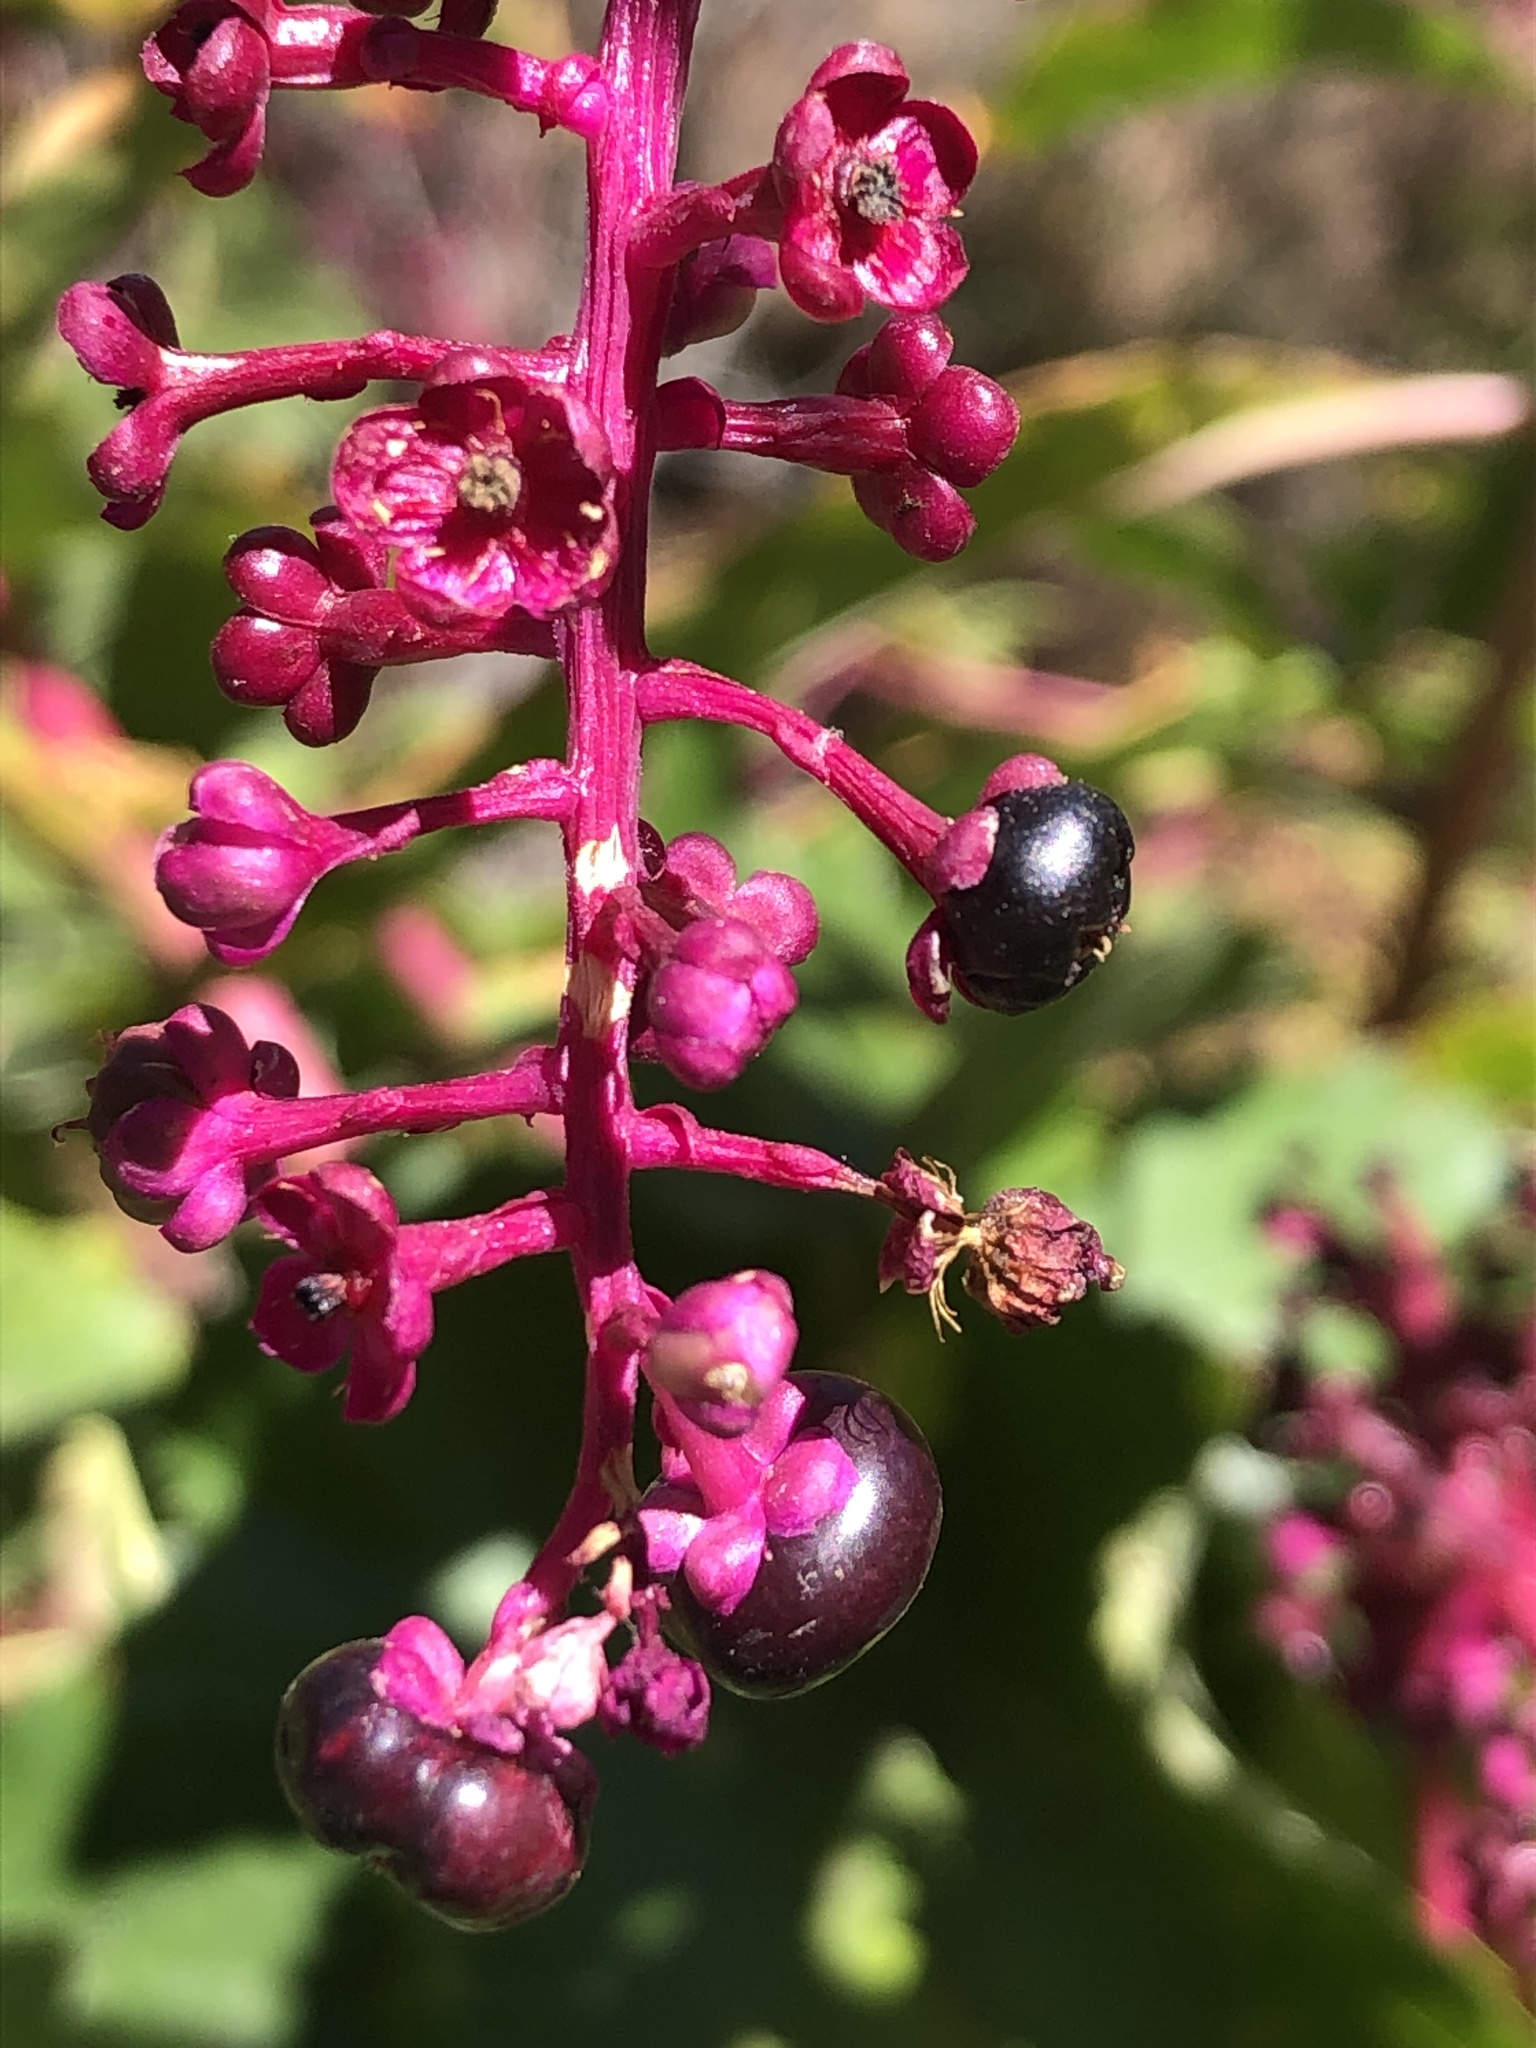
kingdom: Plantae
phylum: Tracheophyta
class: Magnoliopsida
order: Caryophyllales
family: Phytolaccaceae
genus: Phytolacca
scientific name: Phytolacca americana
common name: American pokeweed
